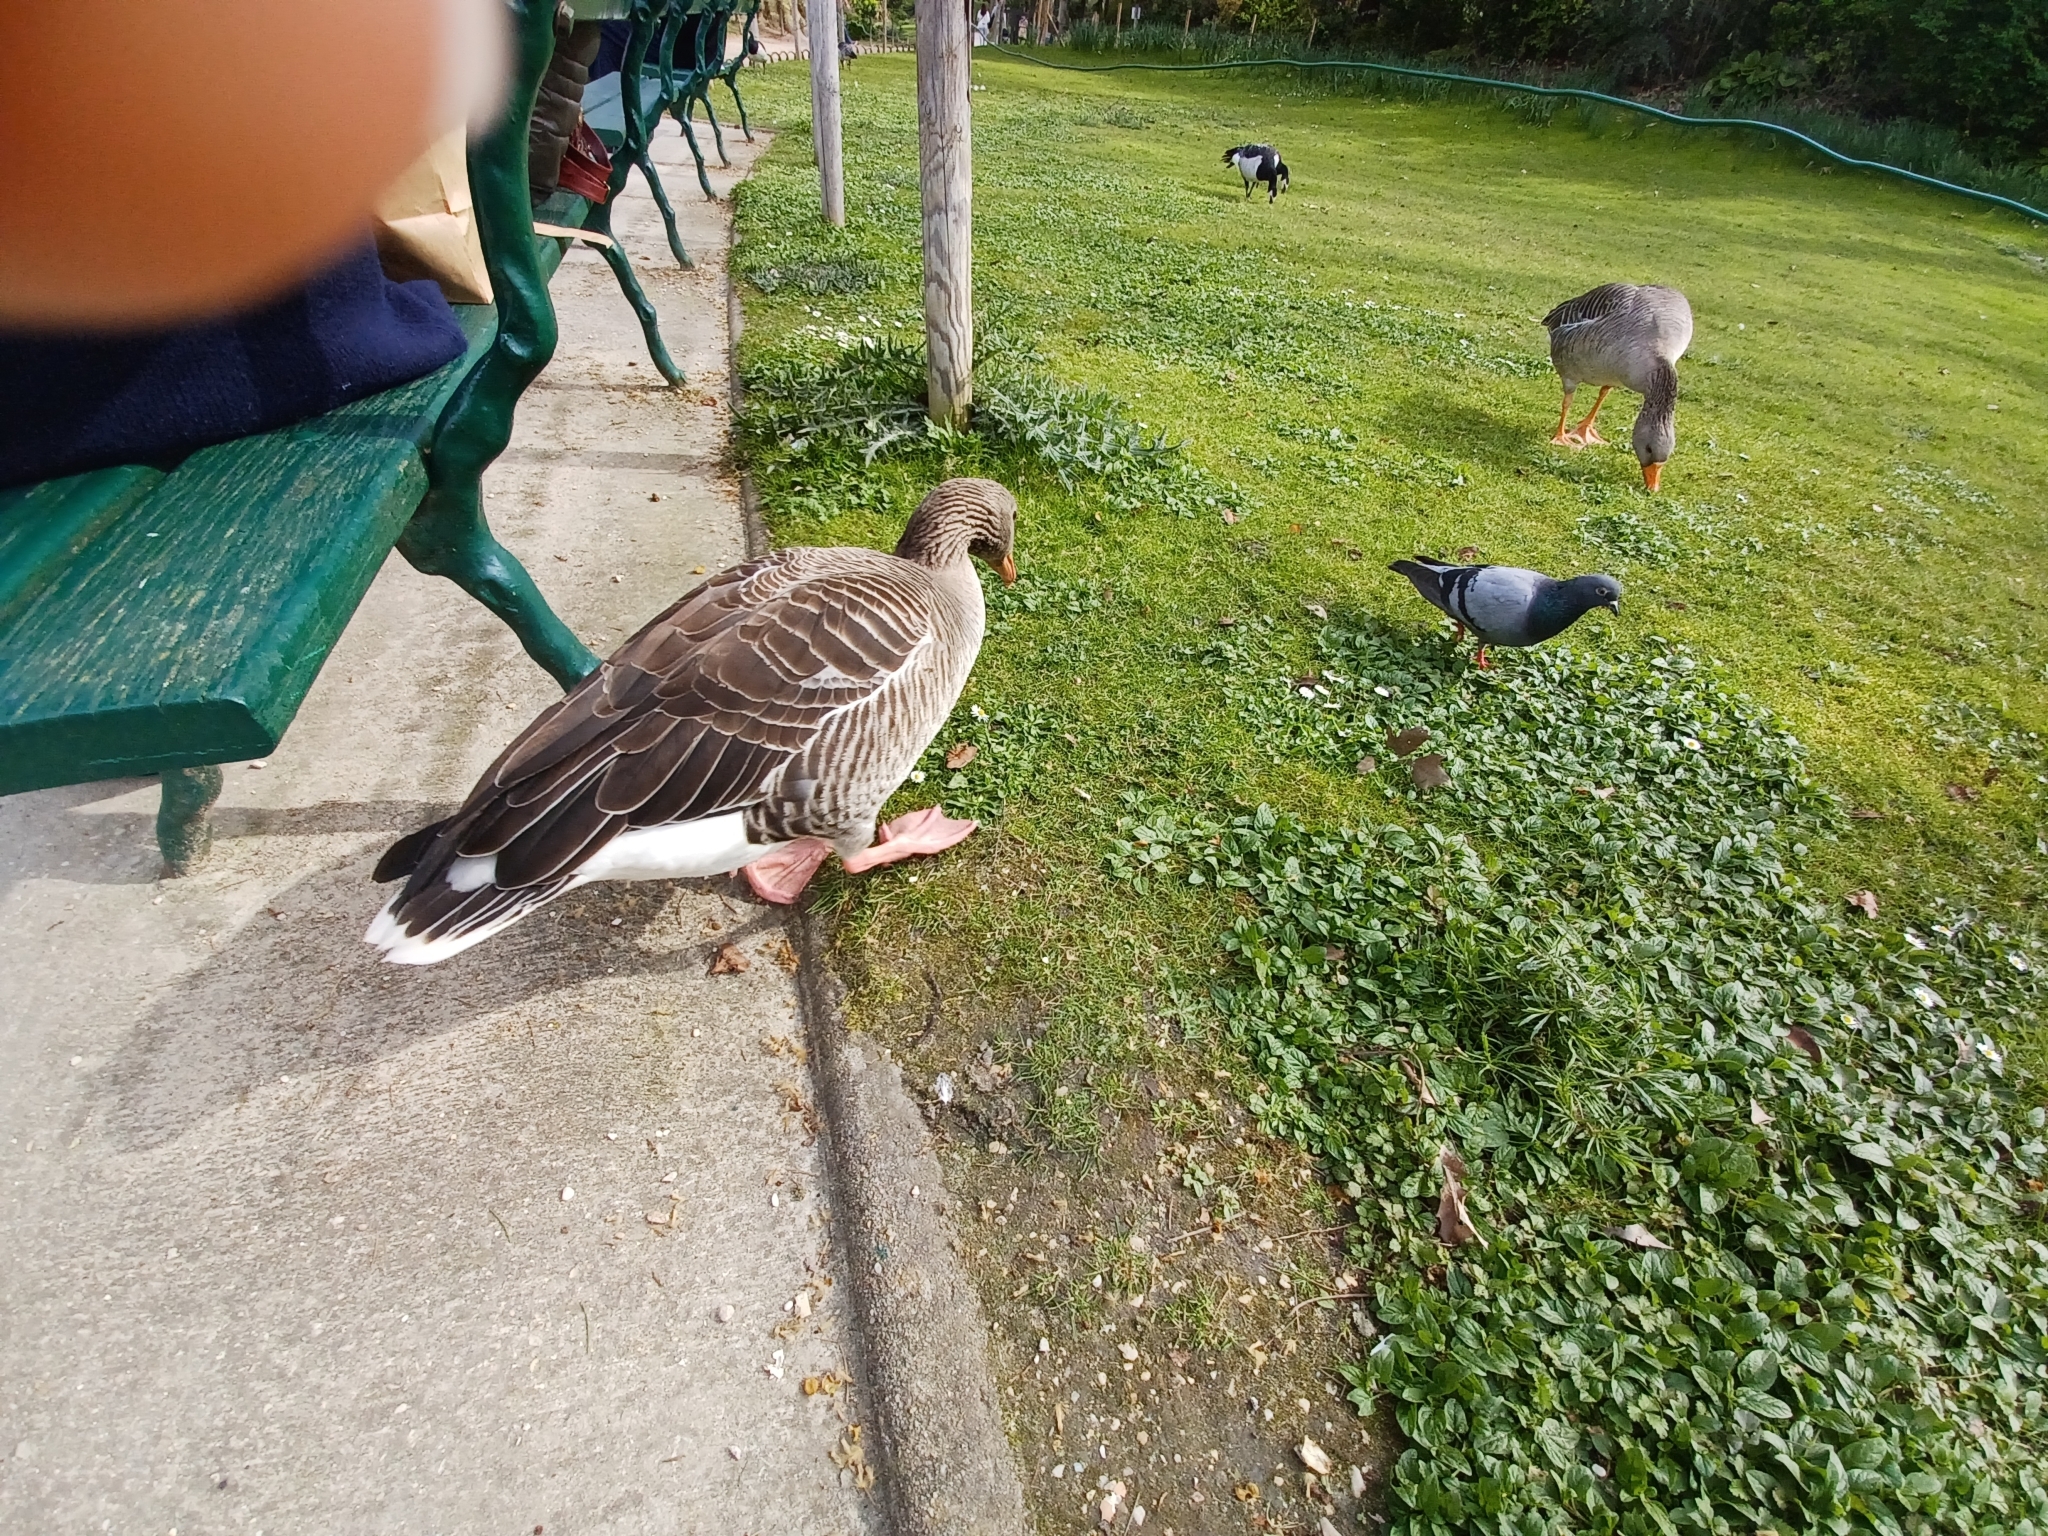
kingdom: Animalia
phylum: Chordata
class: Aves
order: Anseriformes
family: Anatidae
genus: Anser
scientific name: Anser anser
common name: Greylag goose
